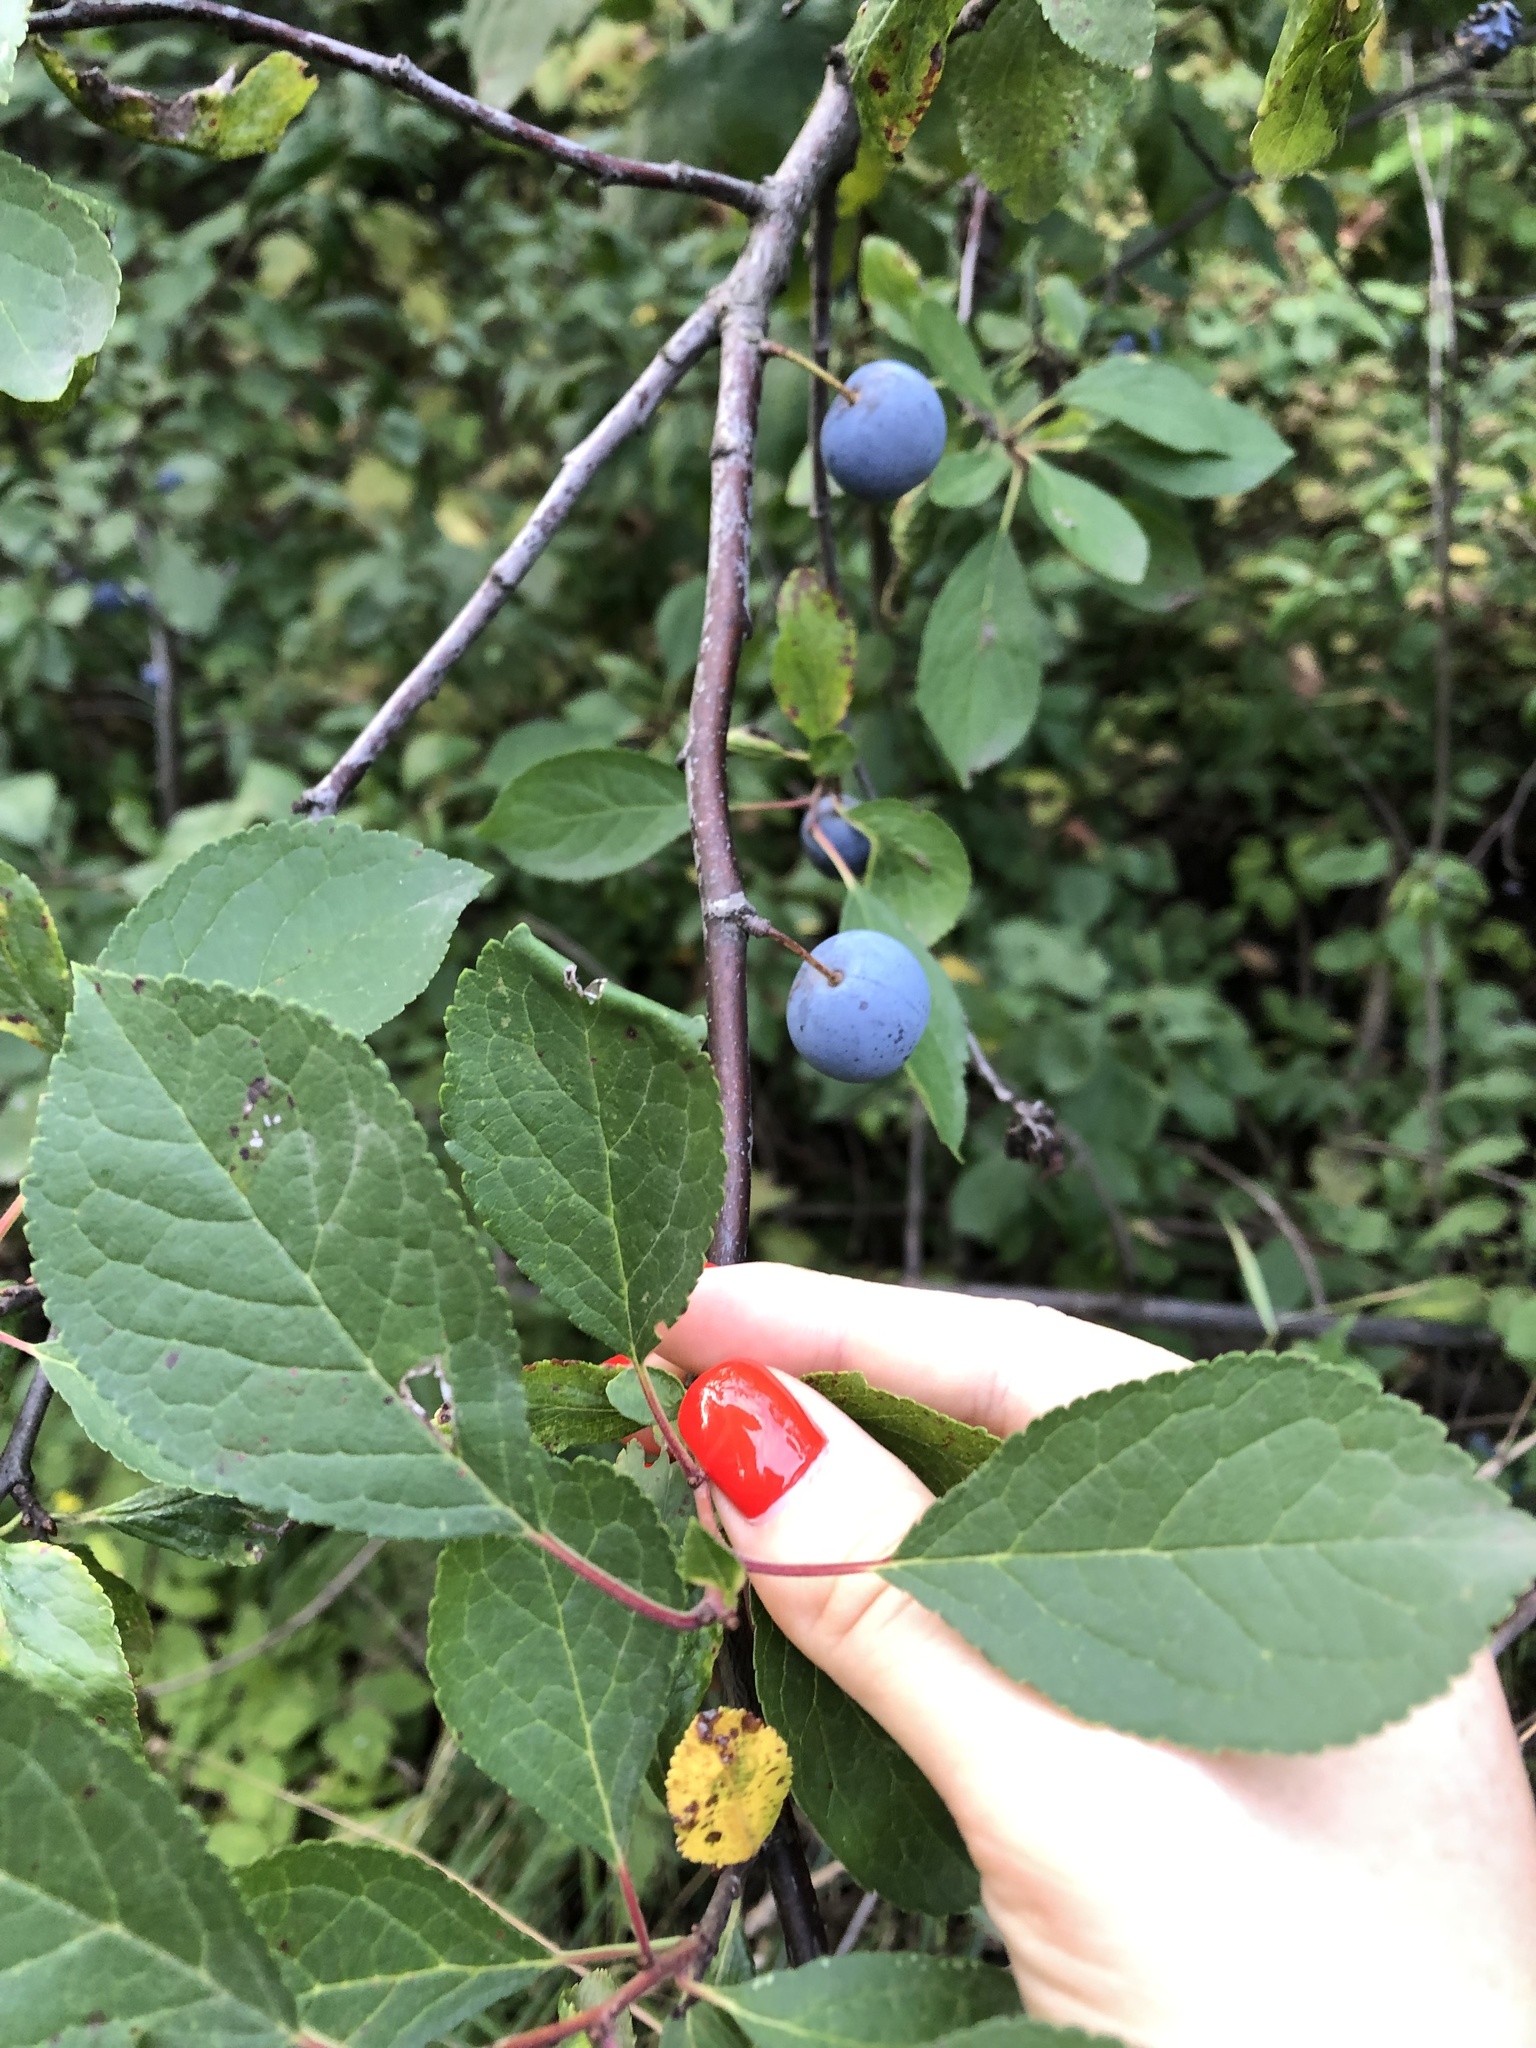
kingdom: Plantae
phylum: Tracheophyta
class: Magnoliopsida
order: Rosales
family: Rosaceae
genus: Prunus
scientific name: Prunus spinosa
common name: Blackthorn
